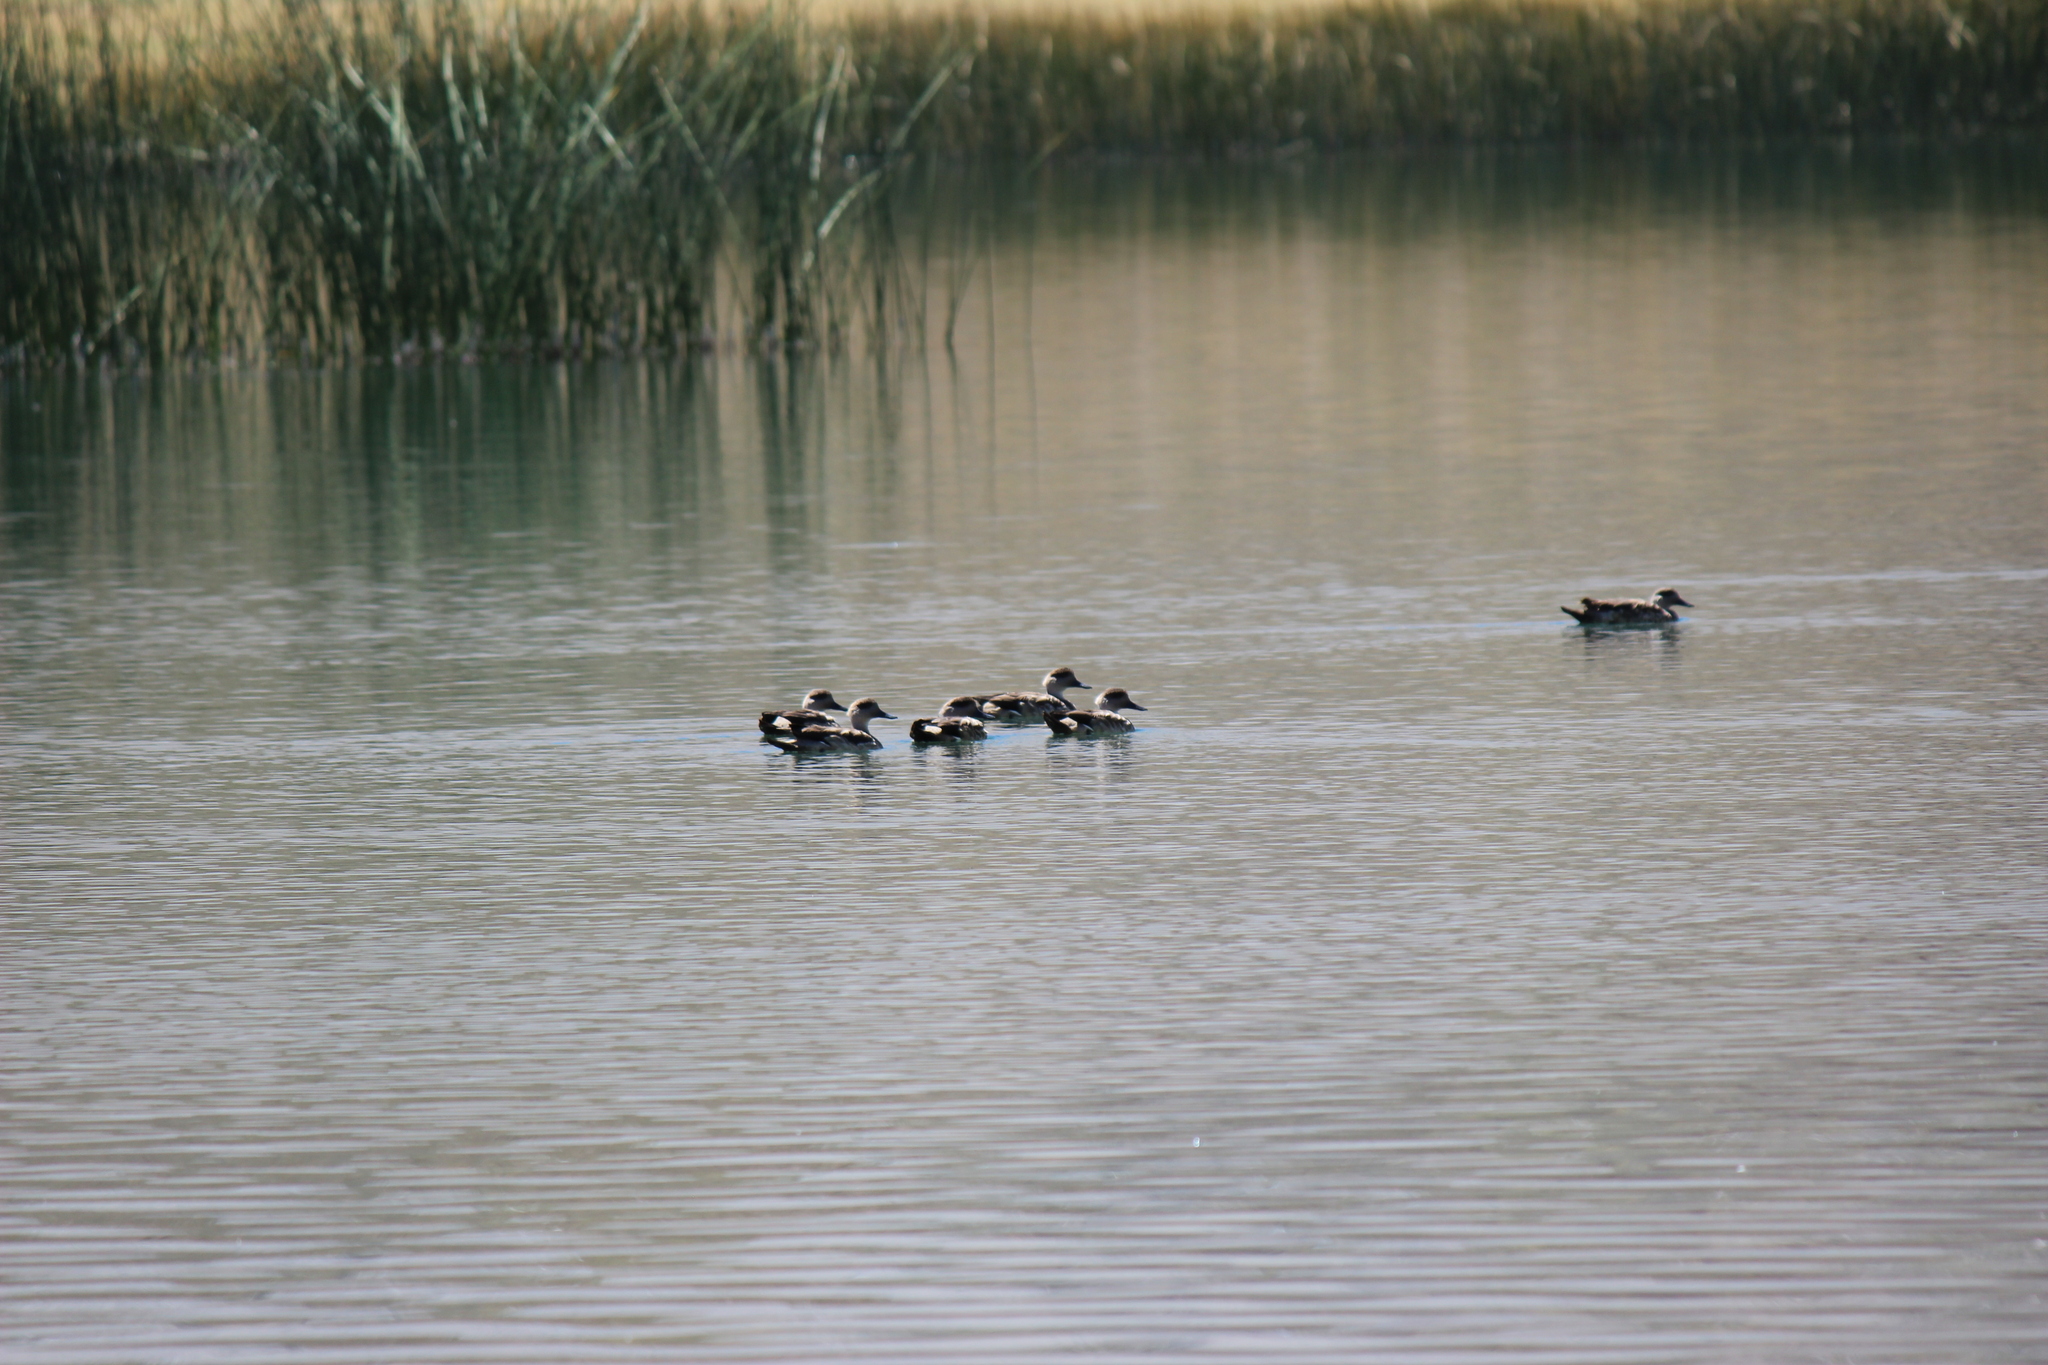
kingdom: Animalia
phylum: Chordata
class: Aves
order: Anseriformes
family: Anatidae
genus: Lophonetta
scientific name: Lophonetta specularioides
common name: Crested duck
